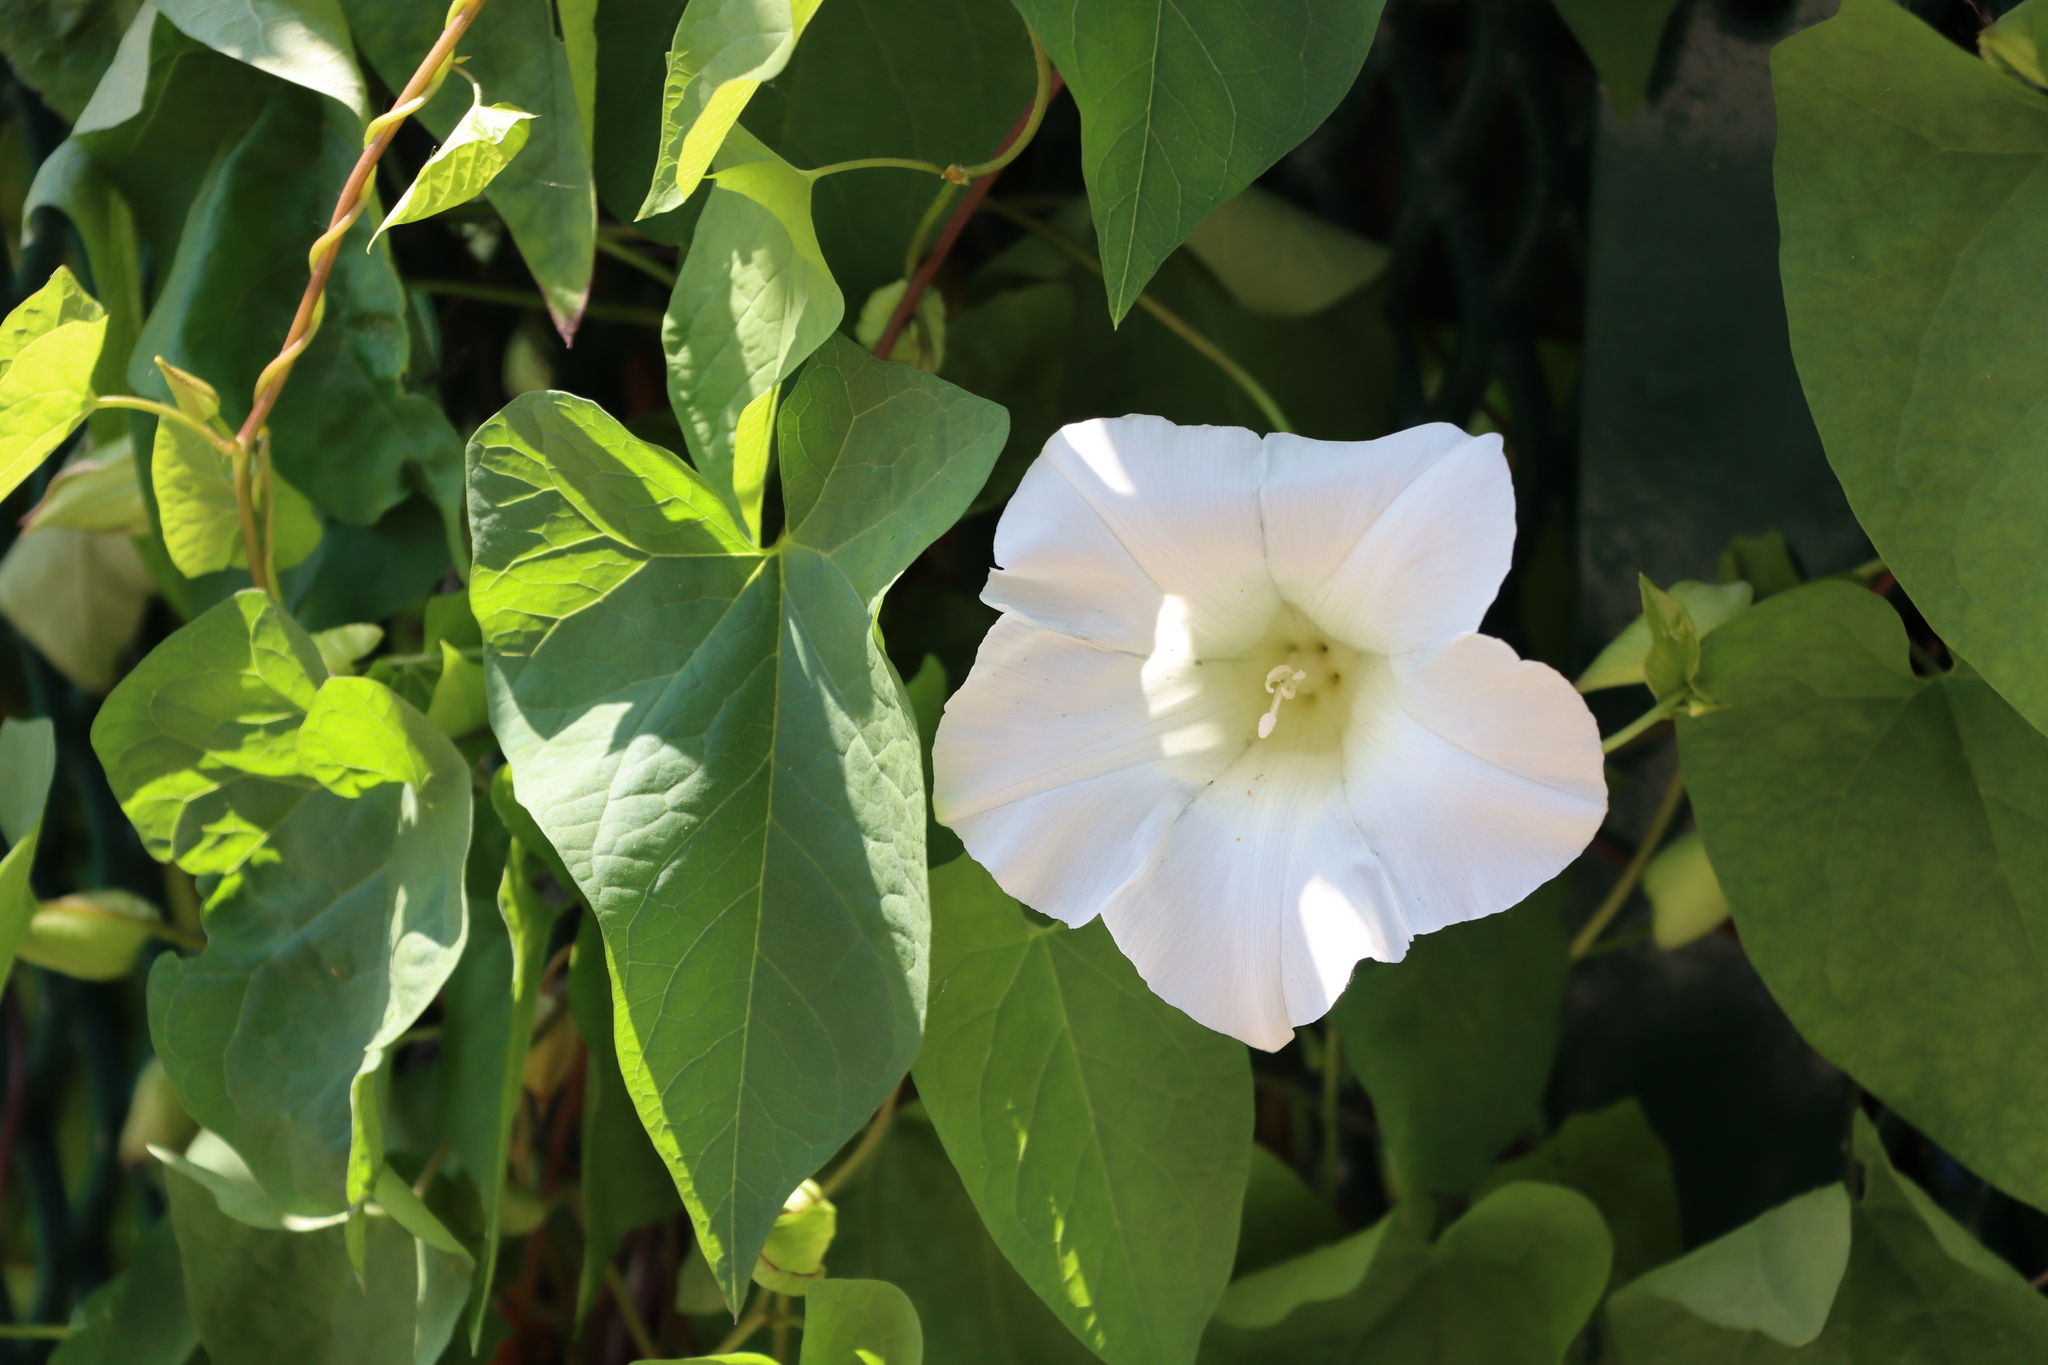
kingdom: Plantae
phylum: Tracheophyta
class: Magnoliopsida
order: Solanales
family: Convolvulaceae
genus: Calystegia
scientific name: Calystegia sepium
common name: Hedge bindweed
